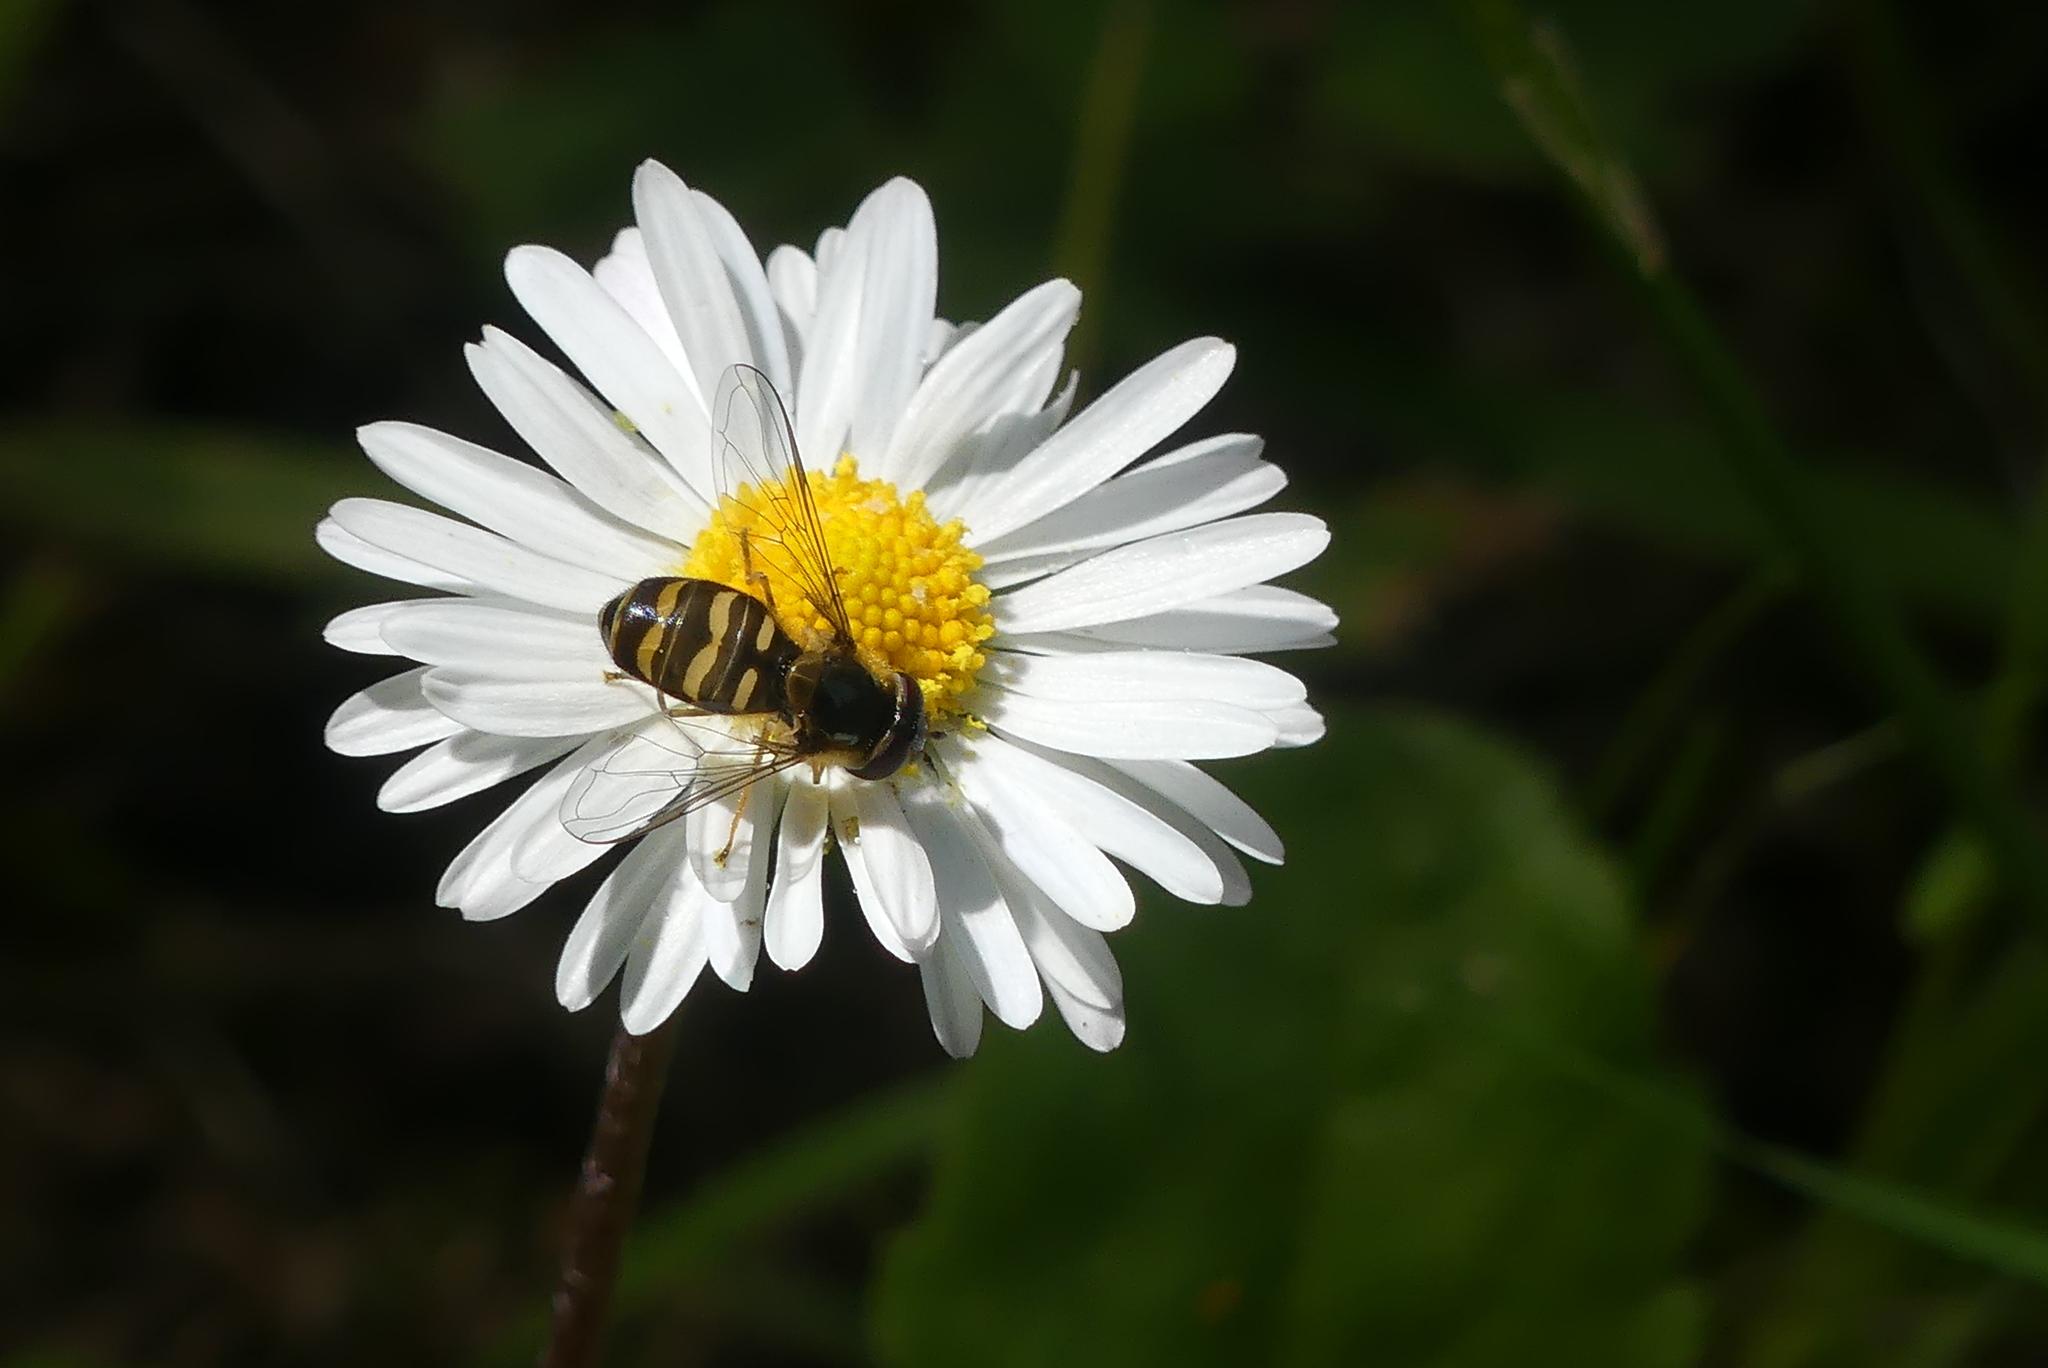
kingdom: Animalia
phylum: Arthropoda
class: Insecta
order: Diptera
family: Syrphidae
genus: Lapposyrphus
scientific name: Lapposyrphus aberrantis
